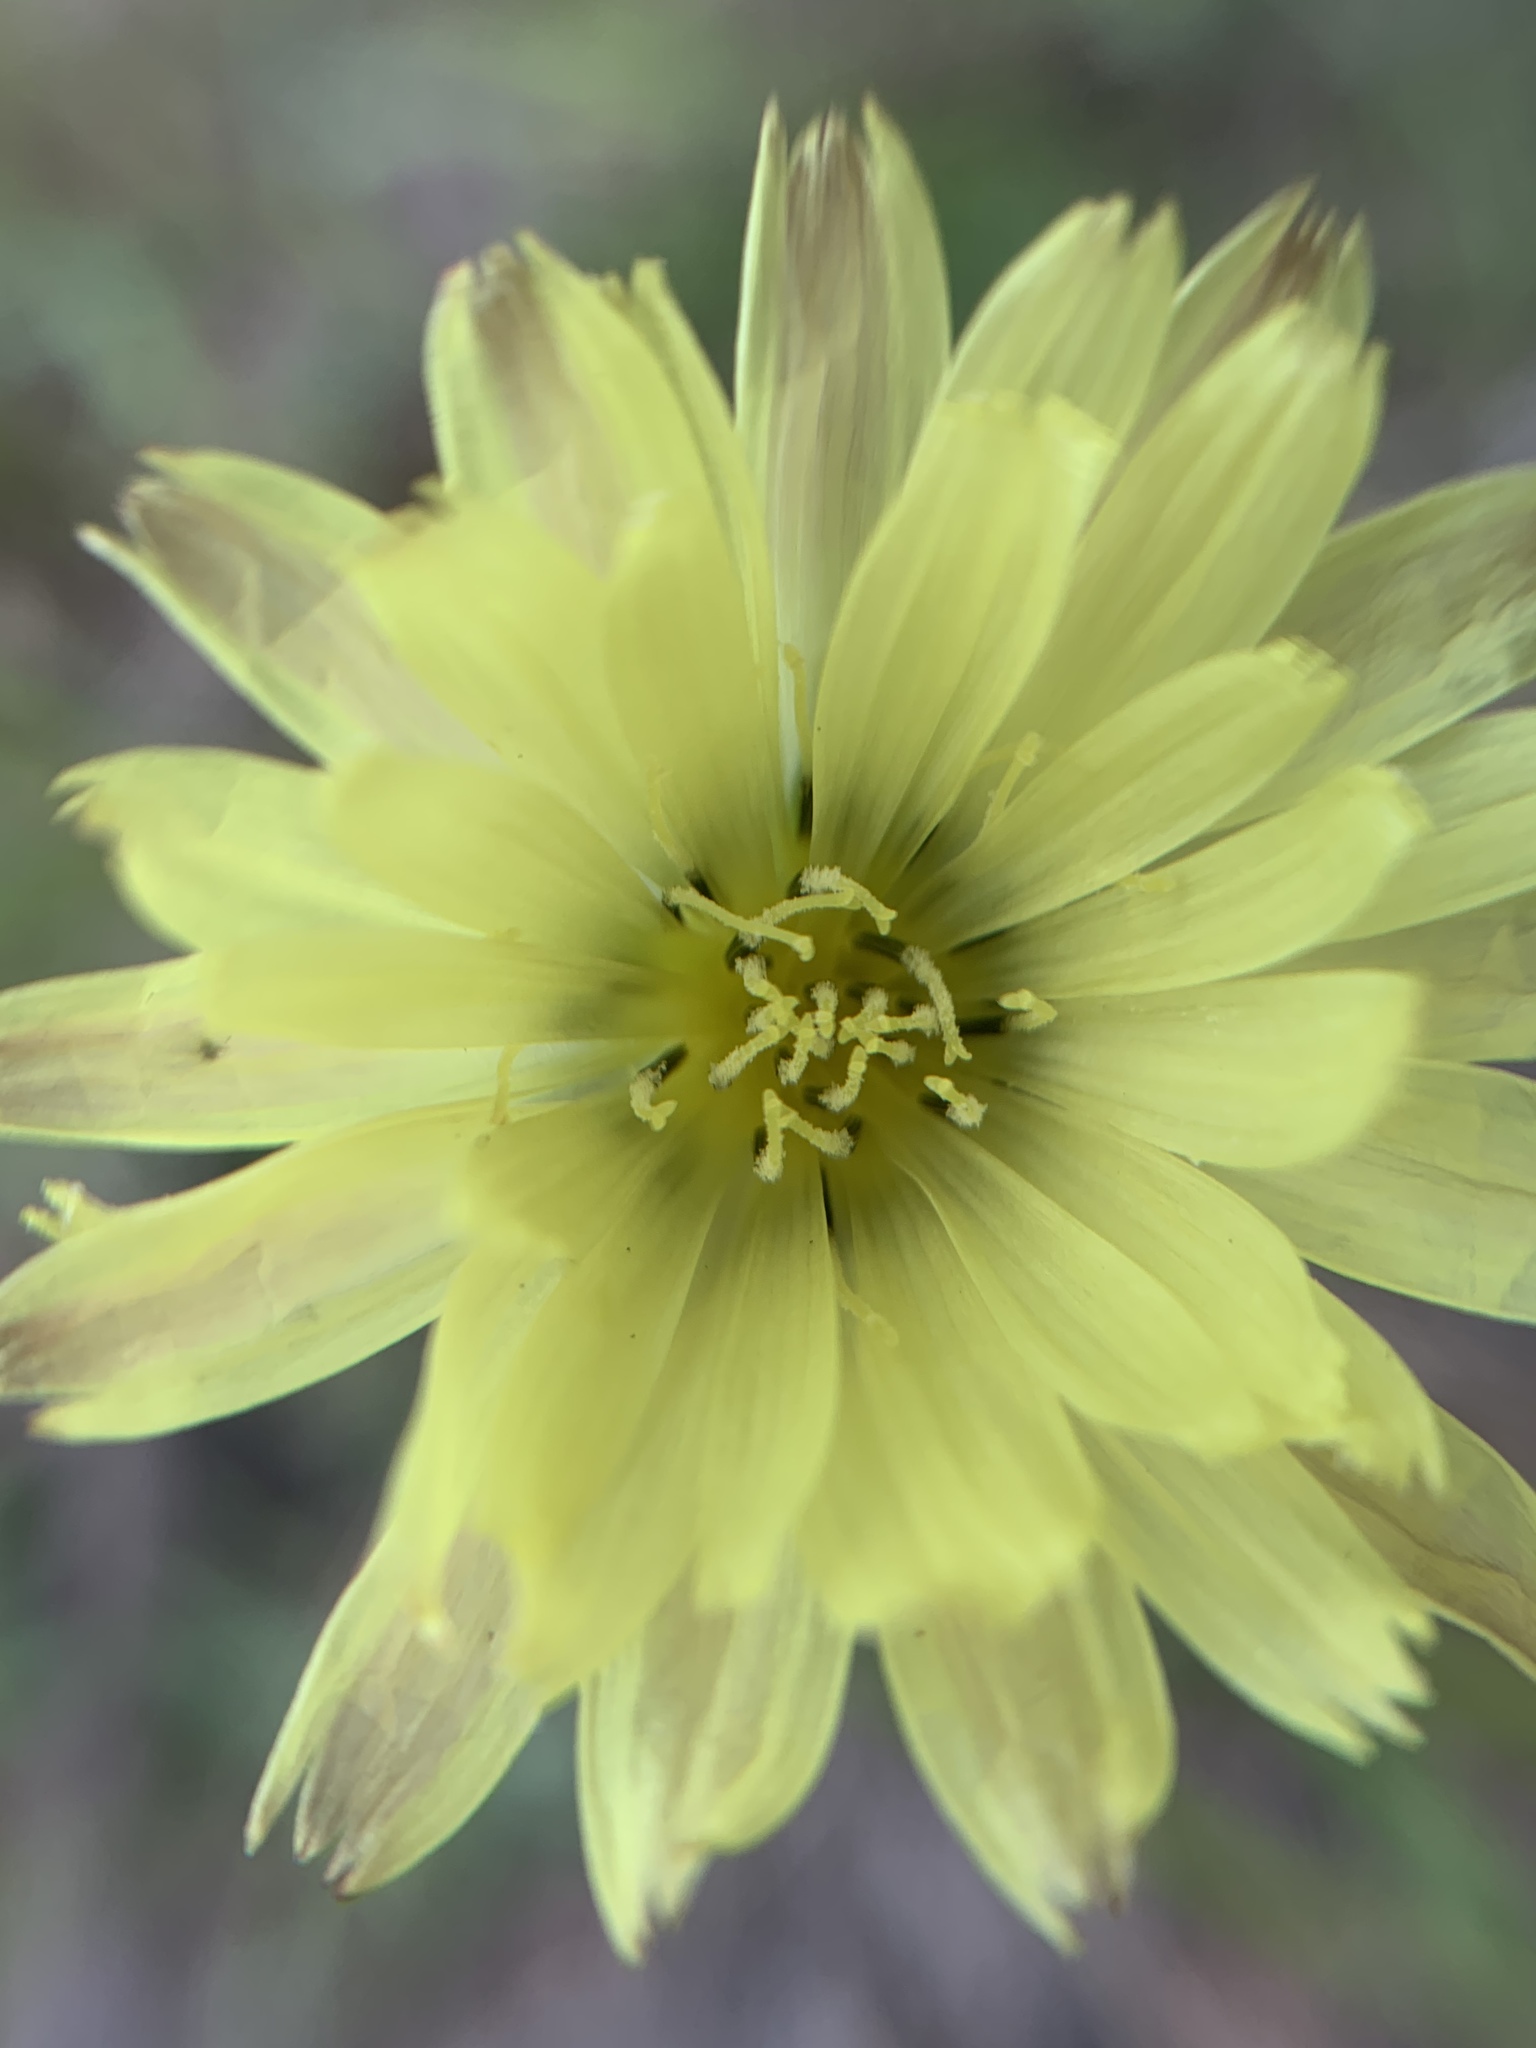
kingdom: Plantae
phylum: Tracheophyta
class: Magnoliopsida
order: Asterales
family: Asteraceae
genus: Pyrrhopappus
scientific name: Pyrrhopappus carolinianus
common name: Carolina desert-chicory
